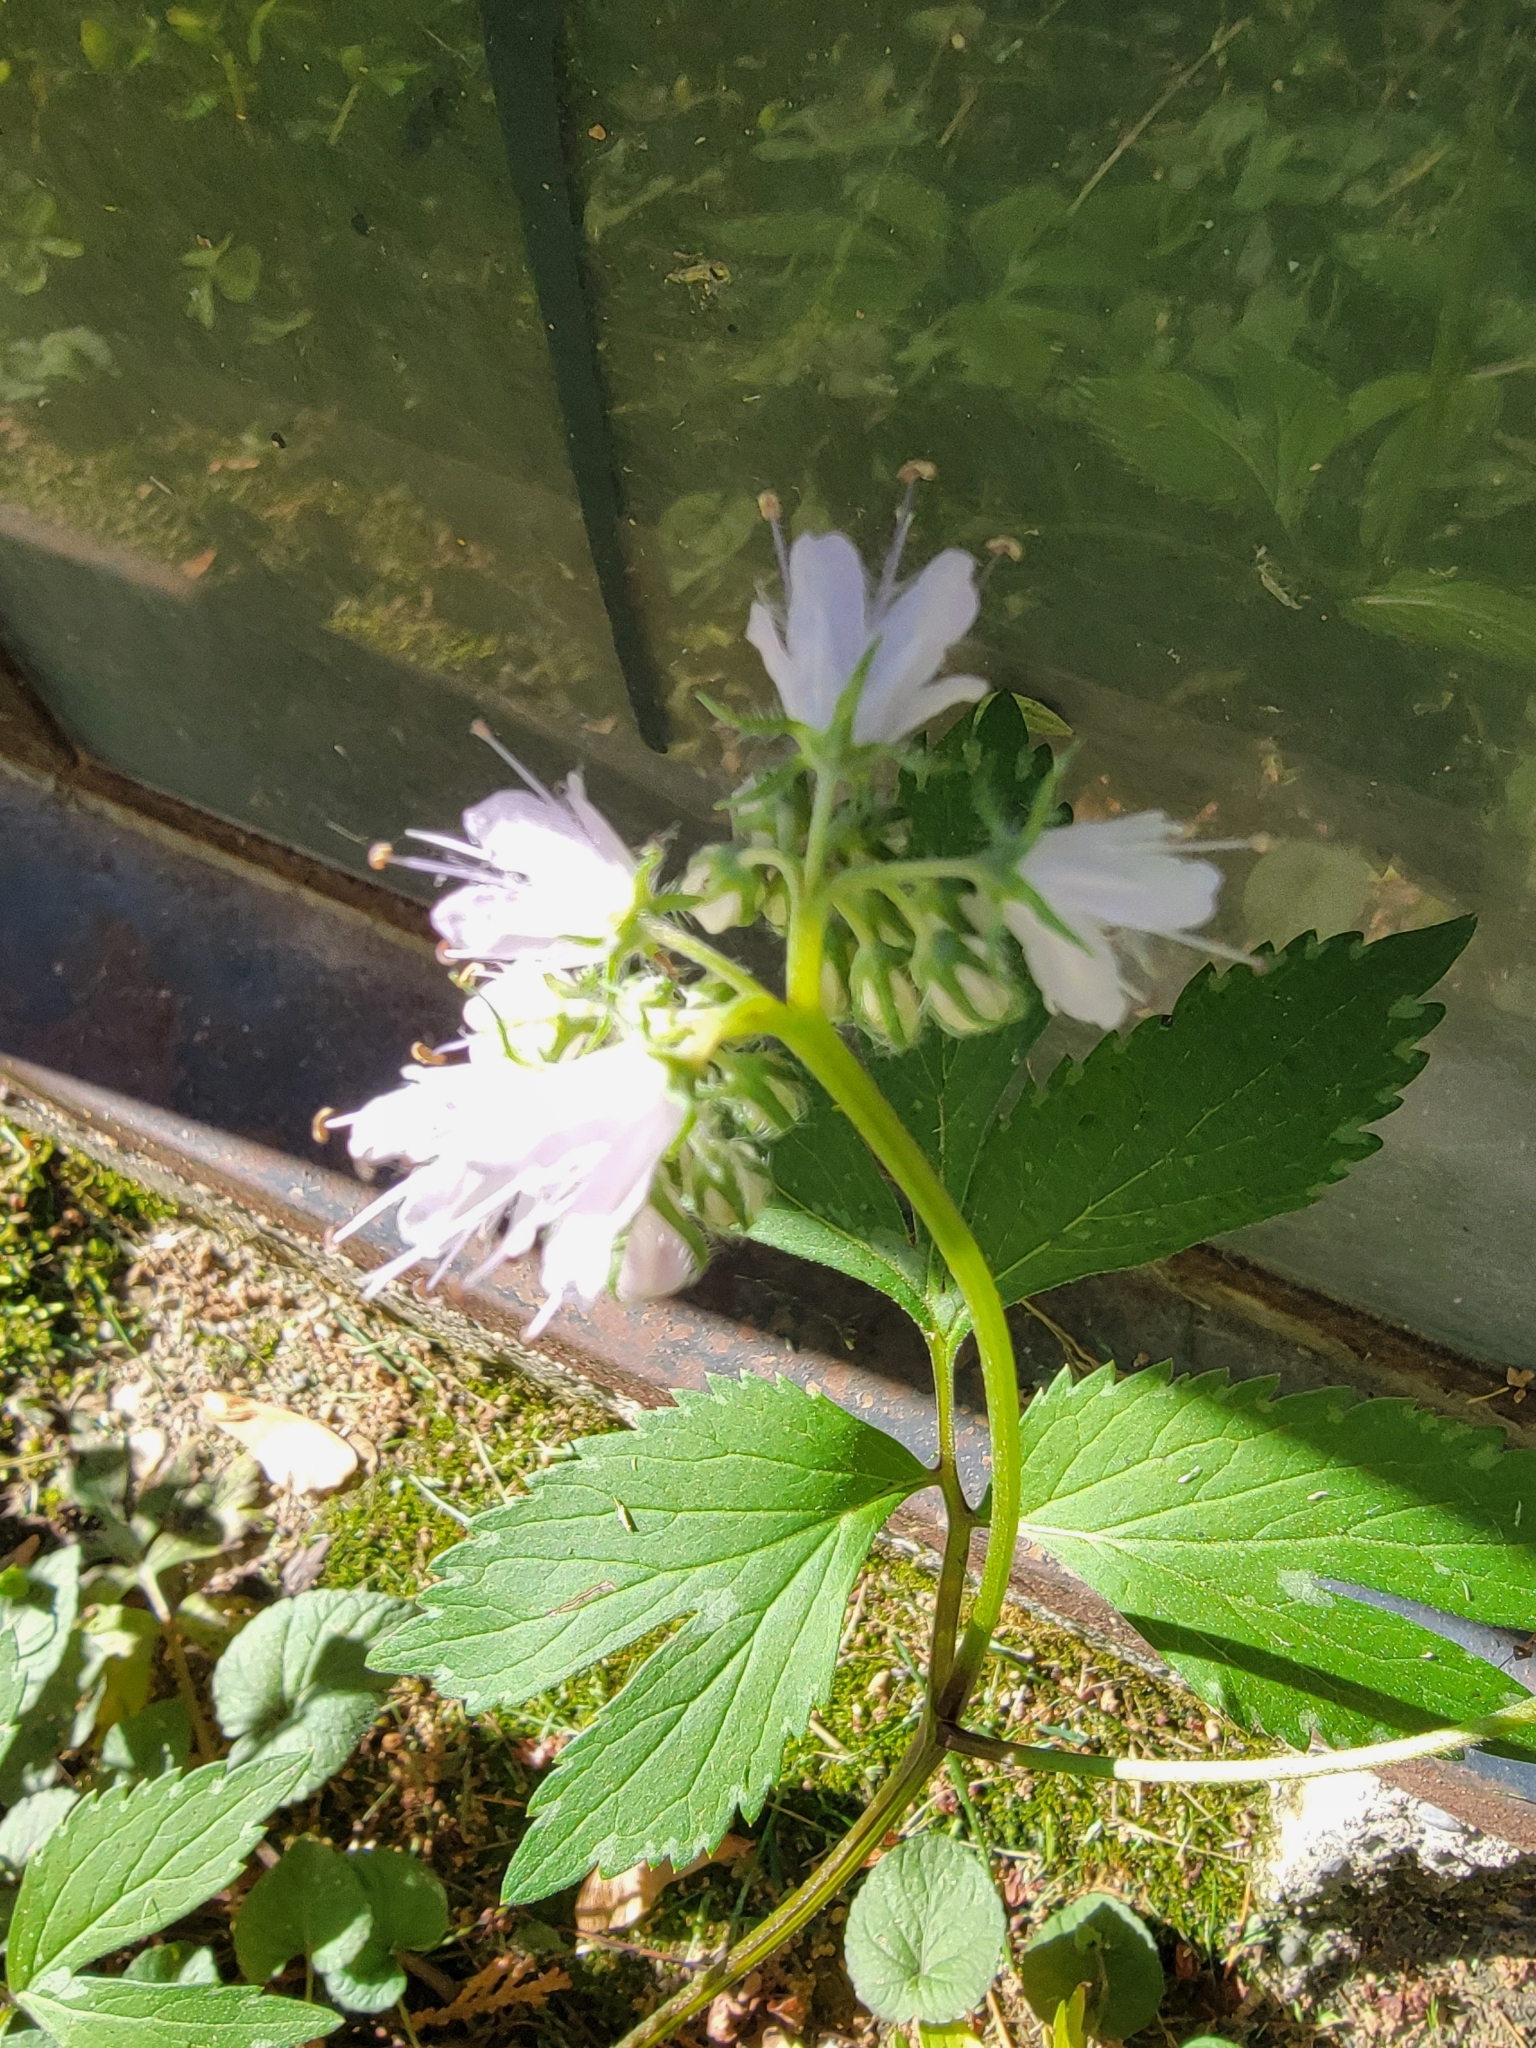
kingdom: Plantae
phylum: Tracheophyta
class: Magnoliopsida
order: Boraginales
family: Hydrophyllaceae
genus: Hydrophyllum
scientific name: Hydrophyllum virginianum
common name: Virginia waterleaf
